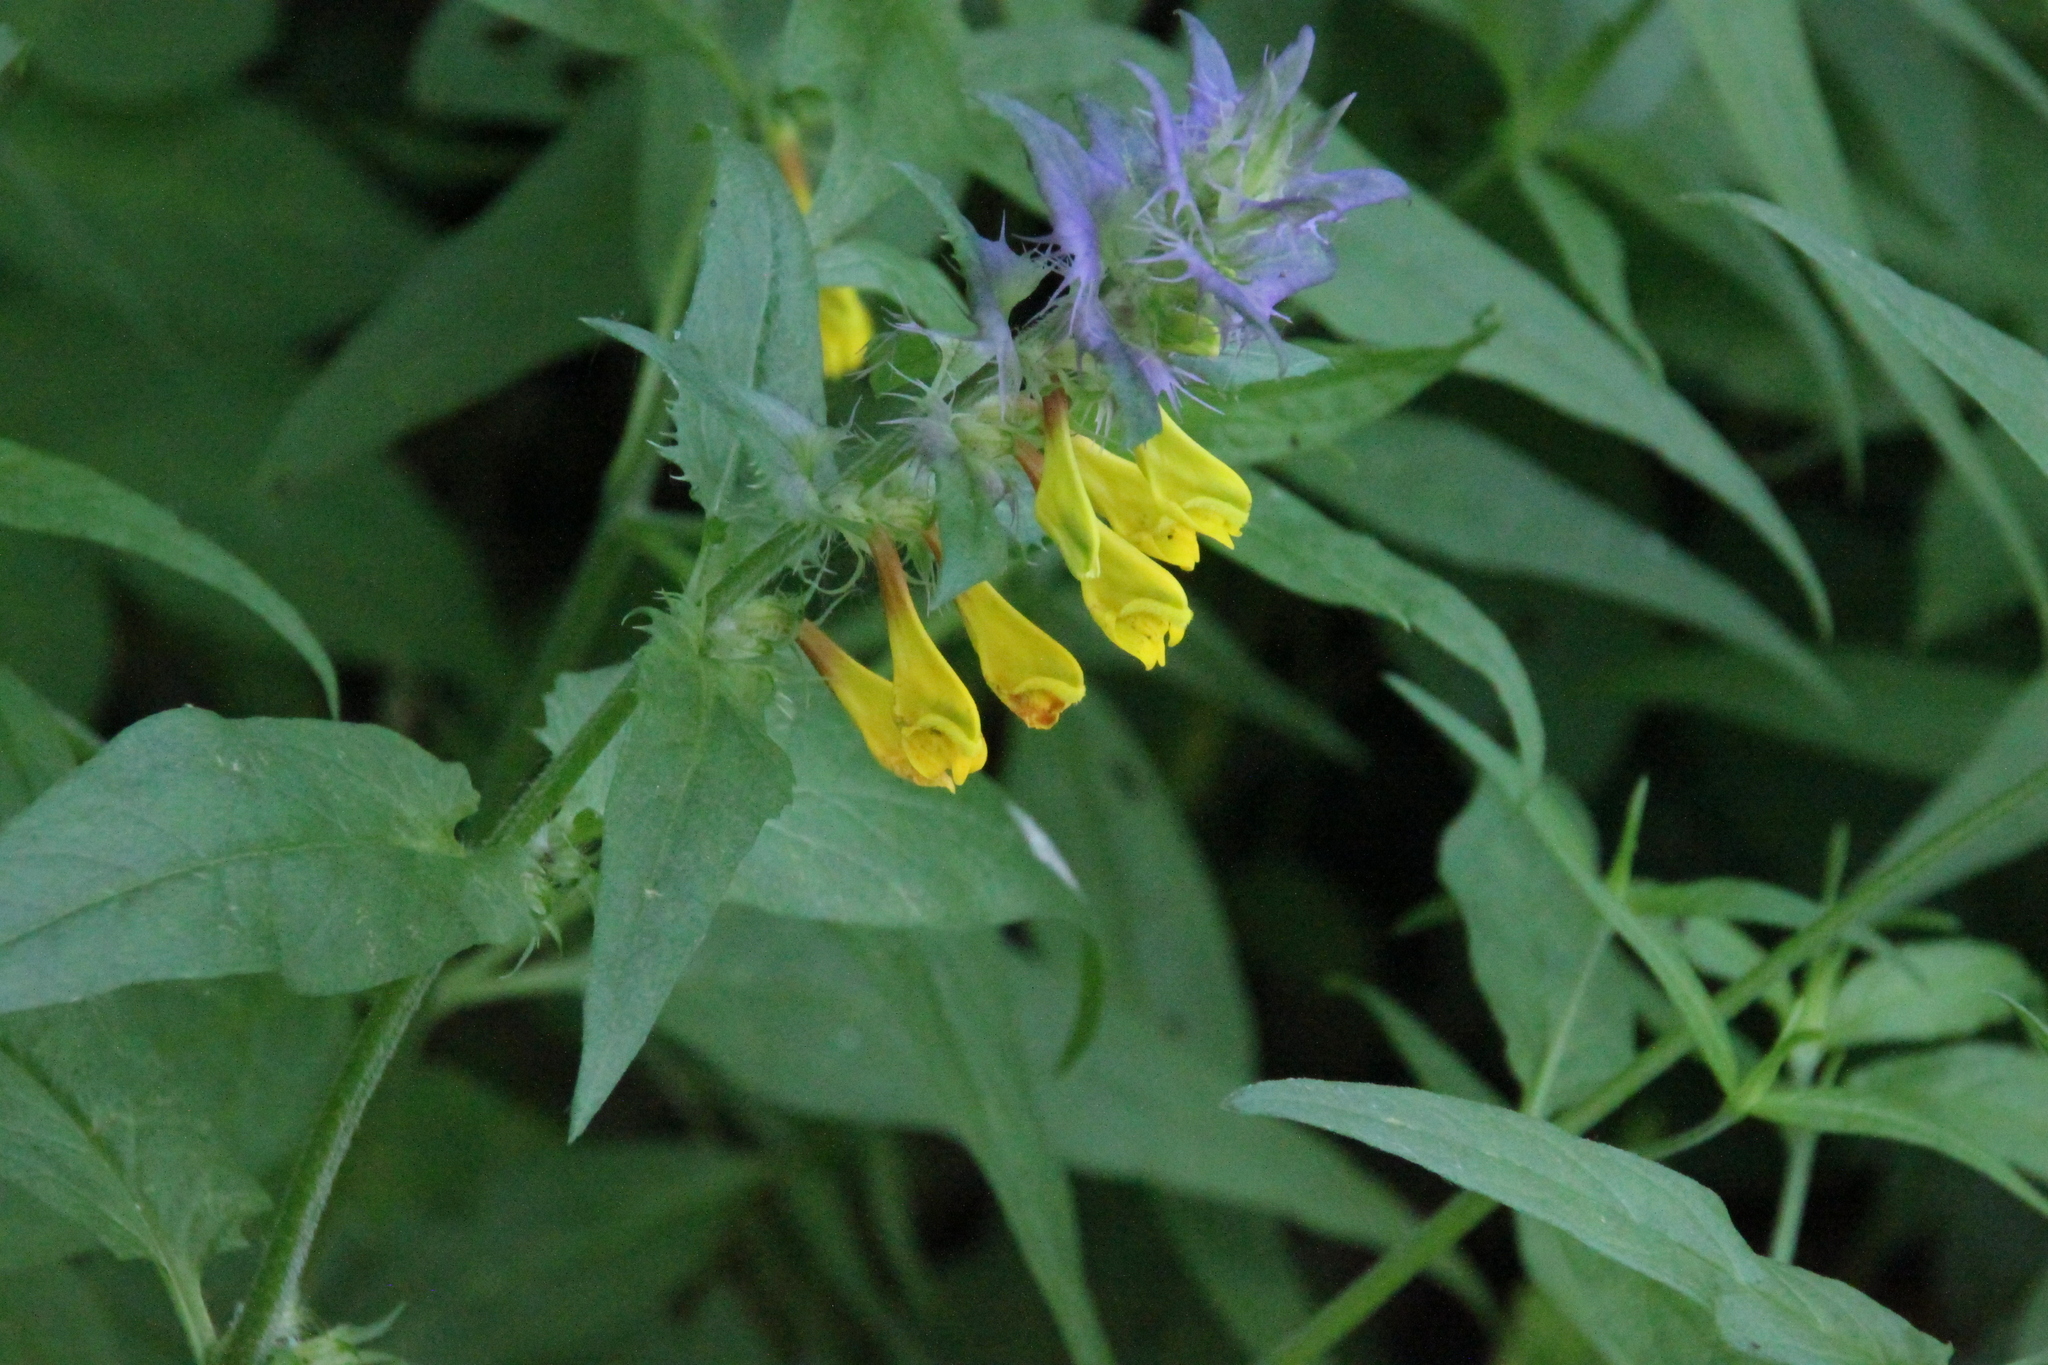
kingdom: Plantae
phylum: Tracheophyta
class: Magnoliopsida
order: Lamiales
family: Orobanchaceae
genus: Melampyrum
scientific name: Melampyrum nemorosum
